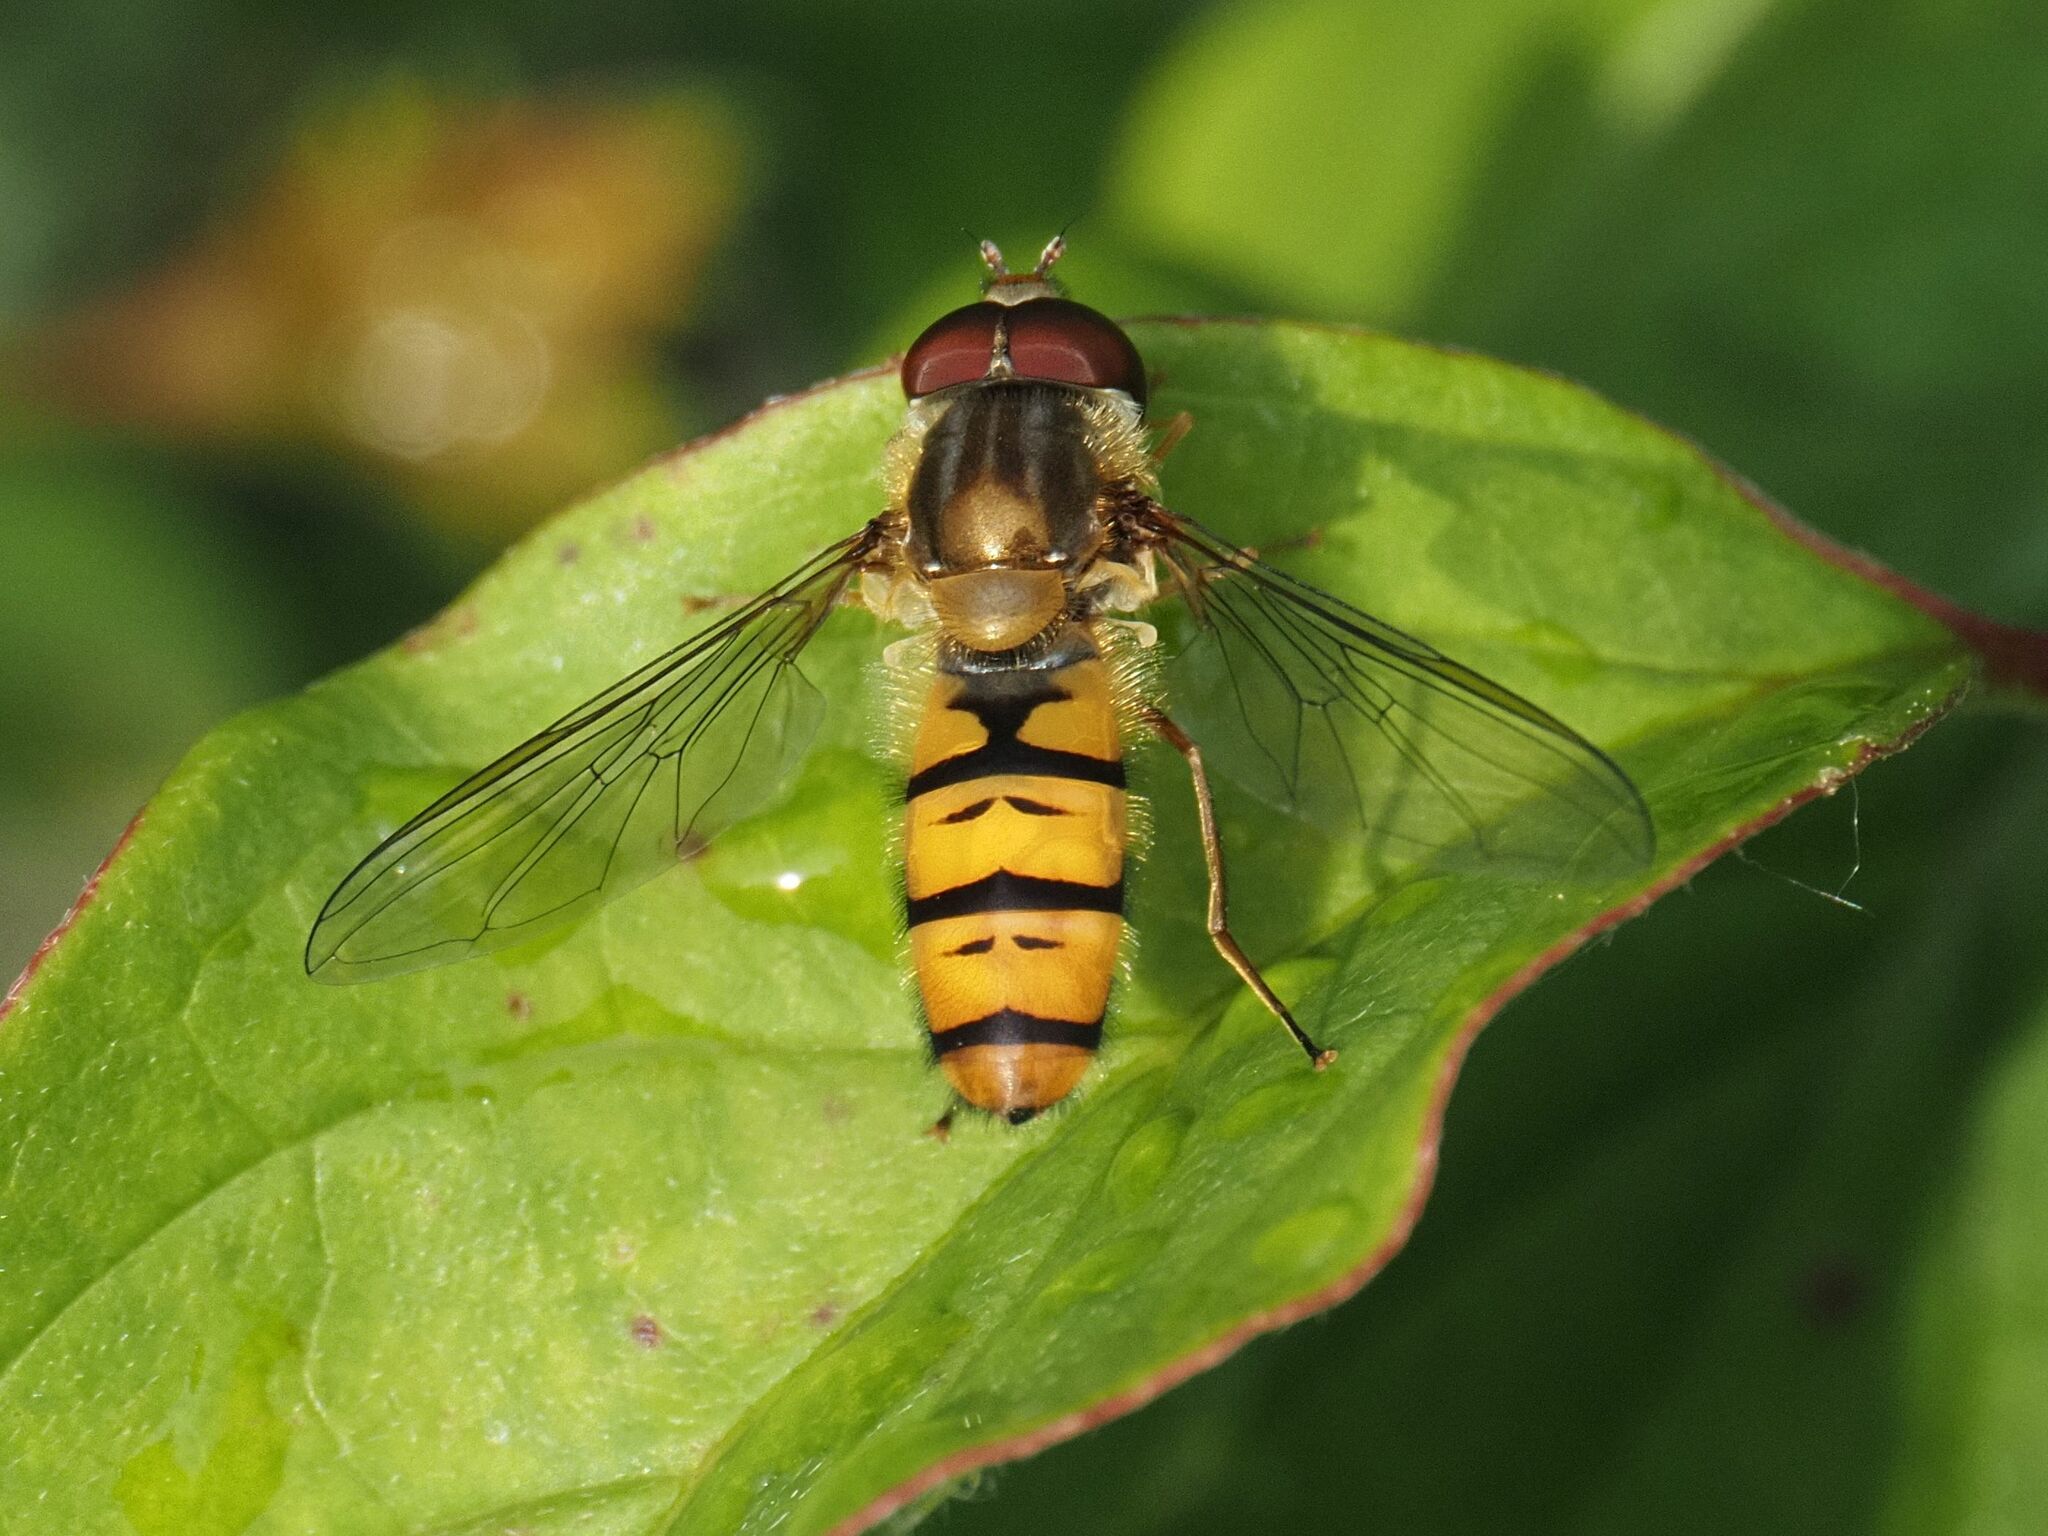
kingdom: Animalia
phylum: Arthropoda
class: Insecta
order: Diptera
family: Syrphidae
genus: Episyrphus
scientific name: Episyrphus balteatus
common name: Marmalade hoverfly
